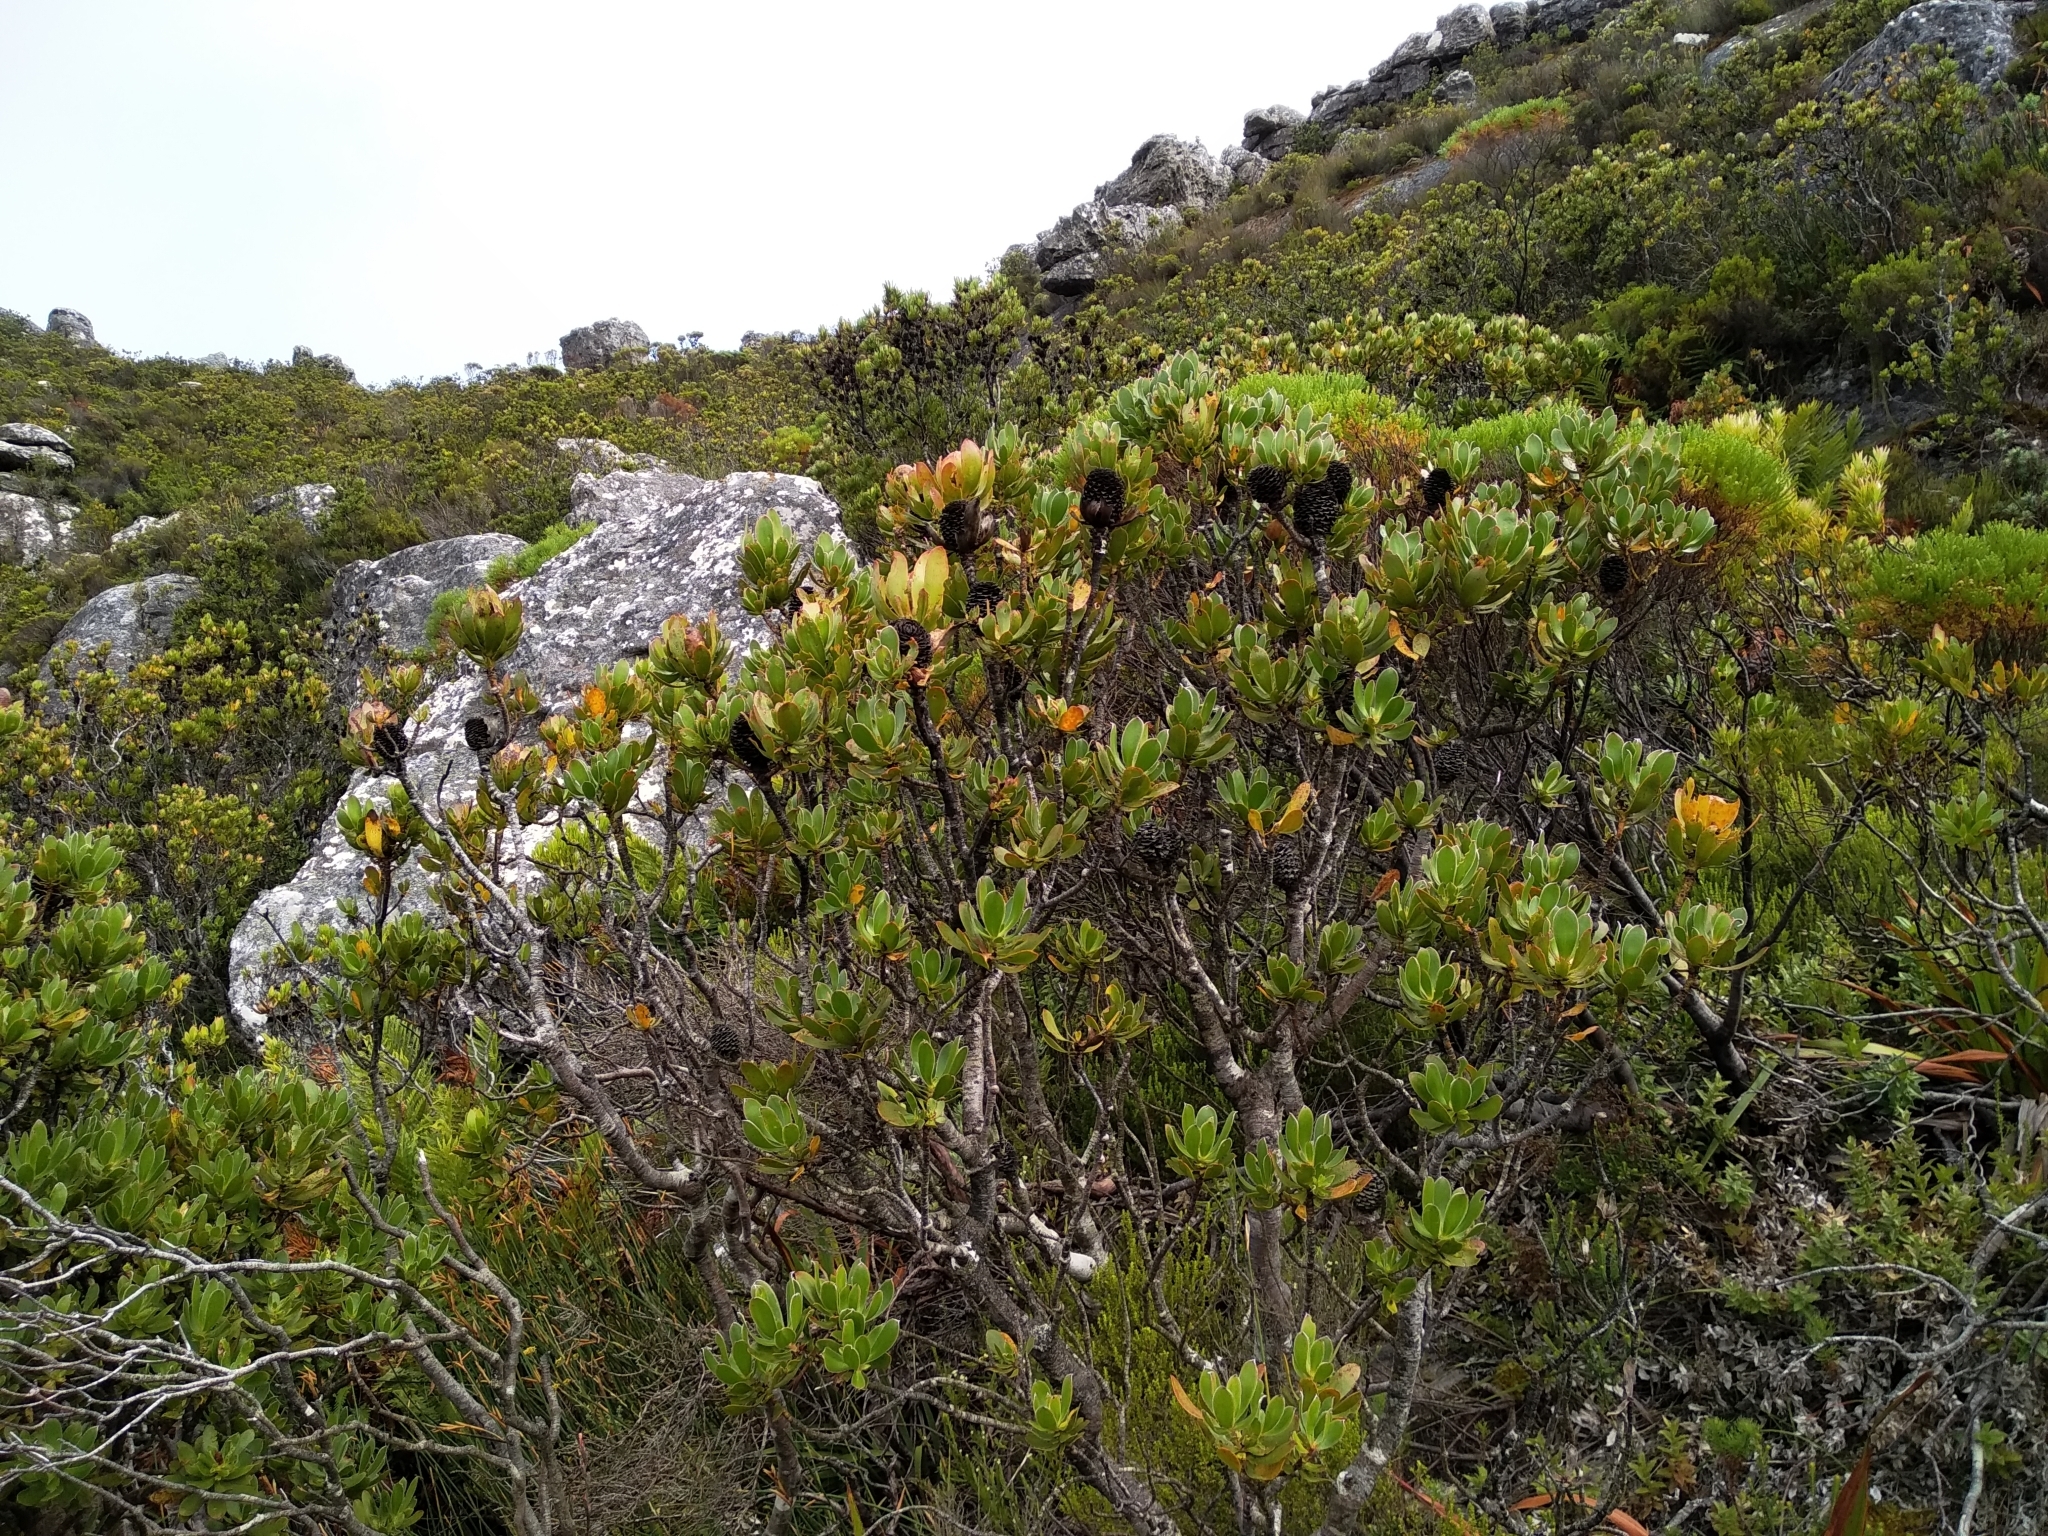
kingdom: Plantae
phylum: Tracheophyta
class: Magnoliopsida
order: Proteales
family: Proteaceae
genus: Leucadendron
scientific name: Leucadendron strobilinum
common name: Mountain rose
